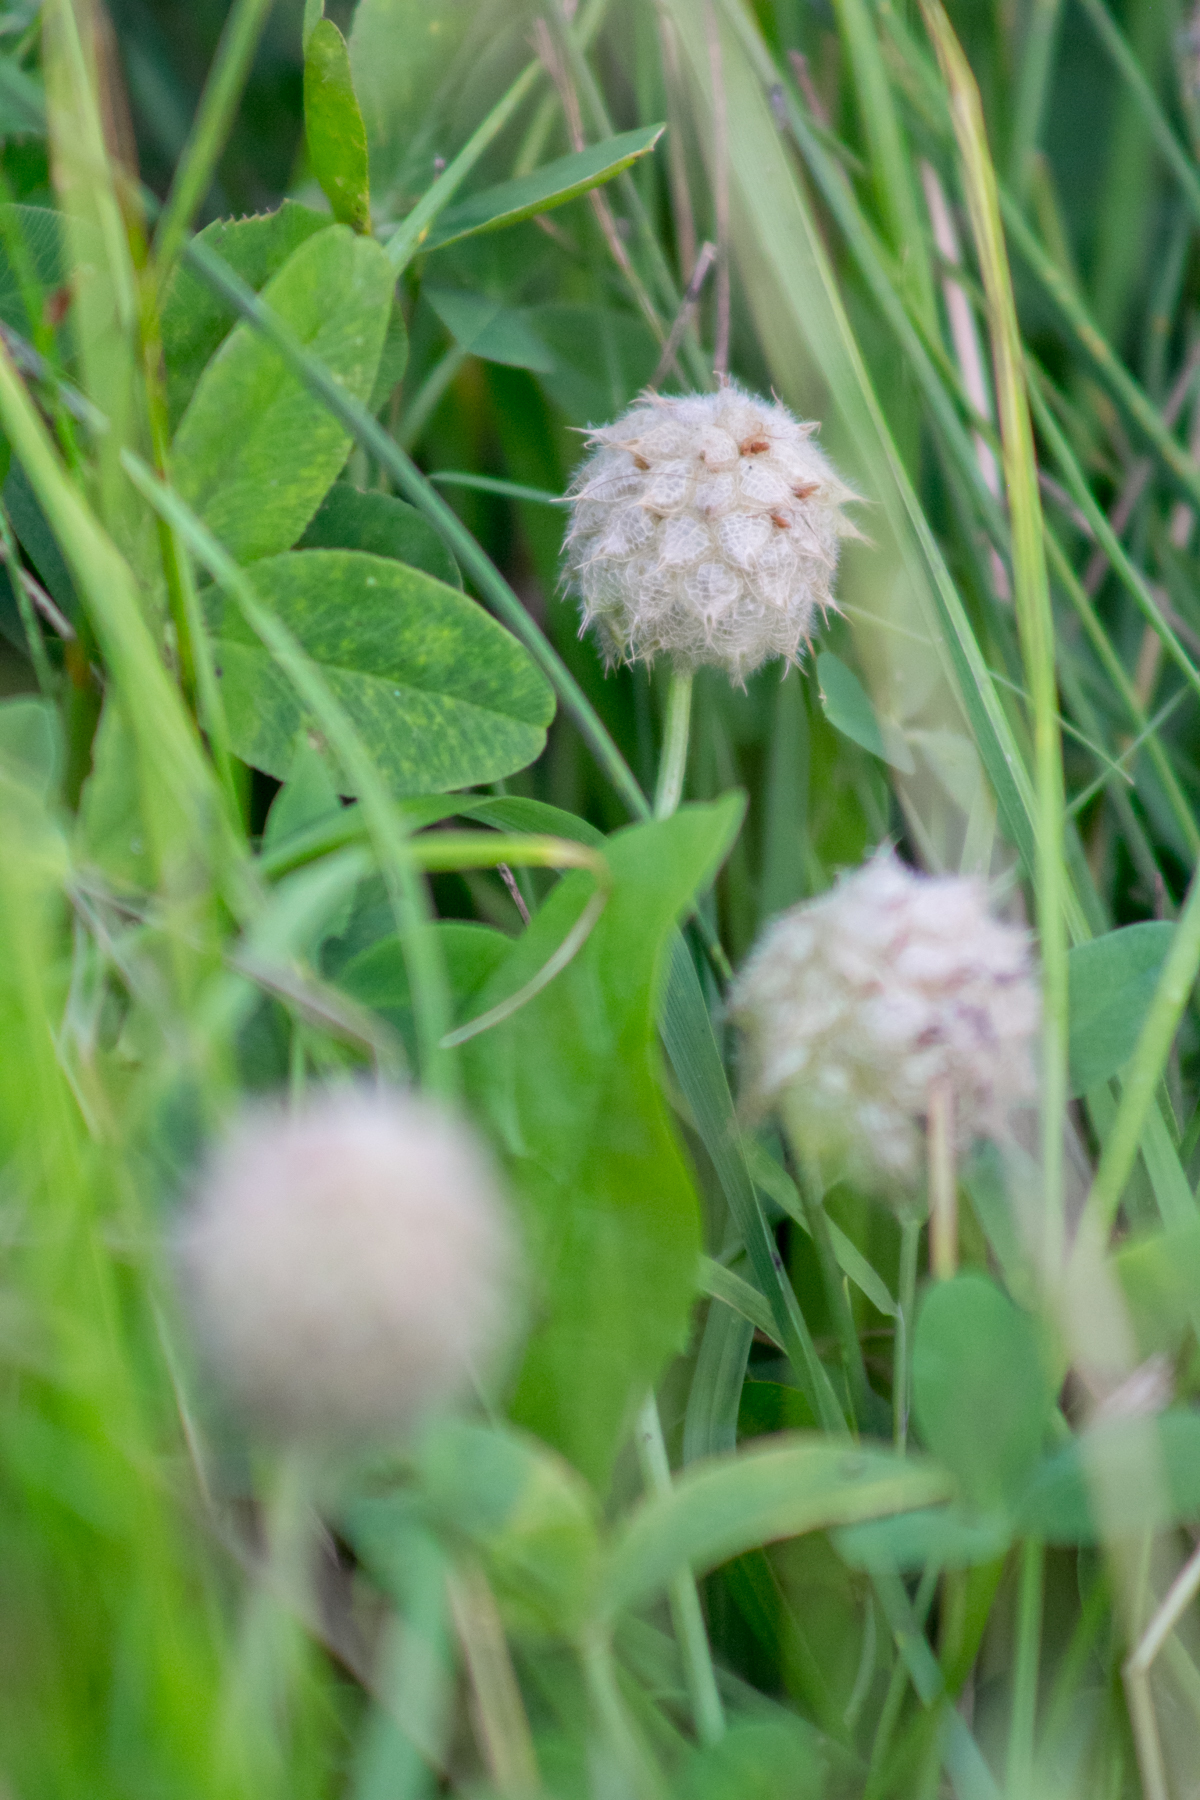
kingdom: Plantae
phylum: Tracheophyta
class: Magnoliopsida
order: Fabales
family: Fabaceae
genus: Trifolium
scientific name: Trifolium fragiferum
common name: Strawberry clover
